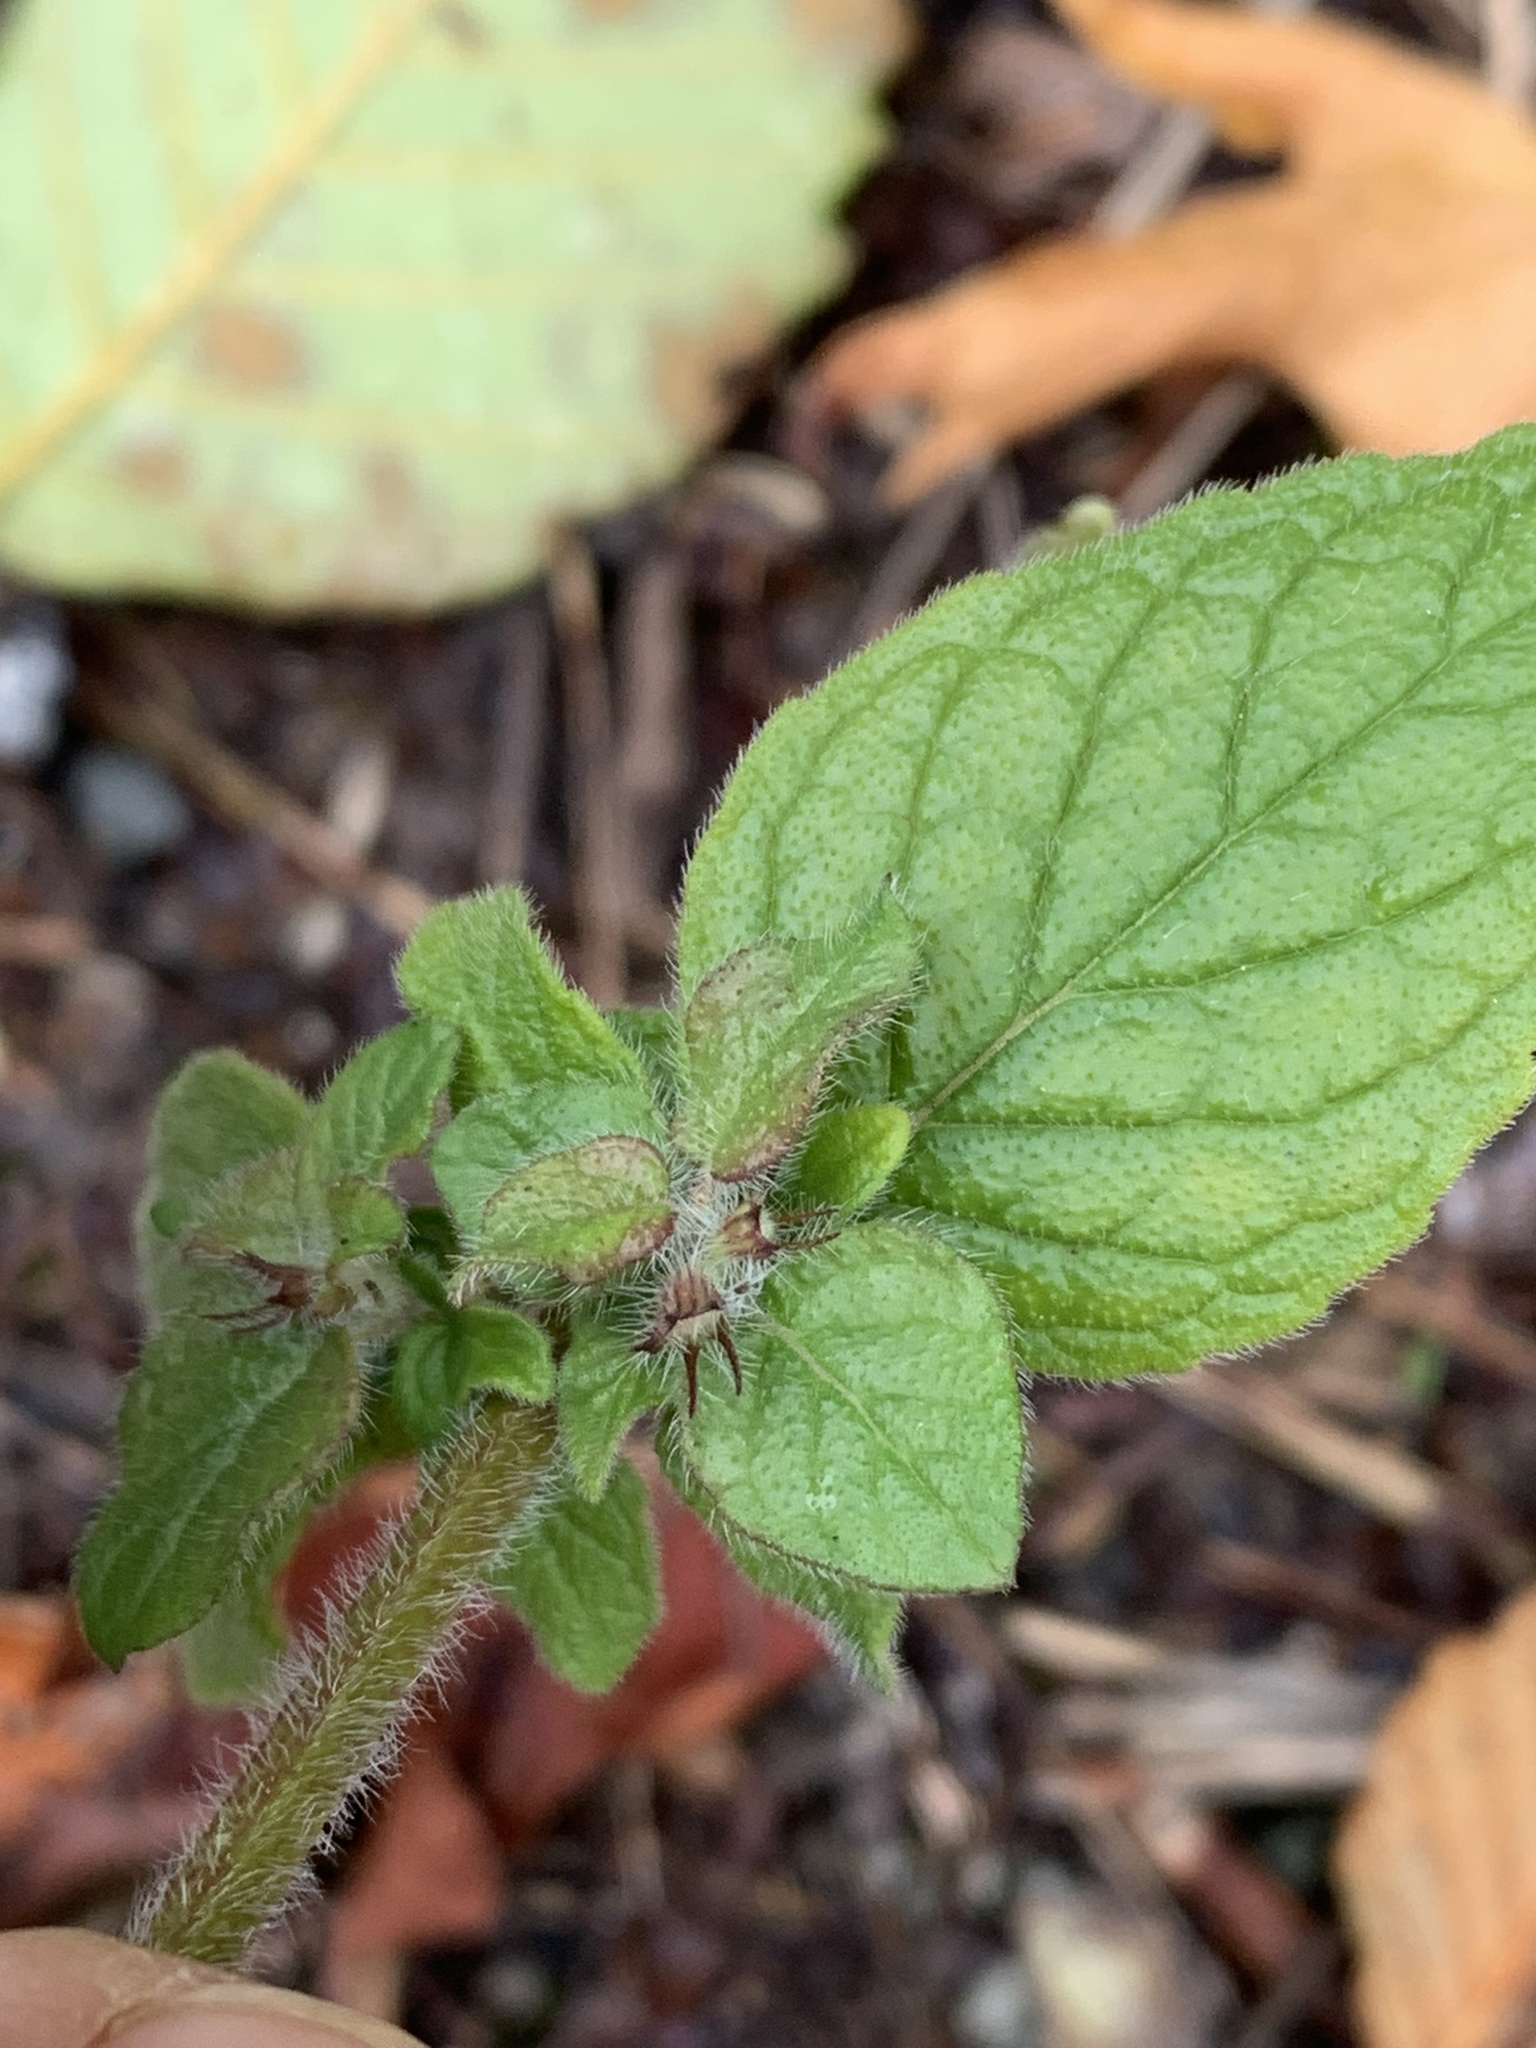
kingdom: Plantae
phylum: Tracheophyta
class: Magnoliopsida
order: Lamiales
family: Lamiaceae
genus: Clinopodium
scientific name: Clinopodium vulgare
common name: Wild basil
